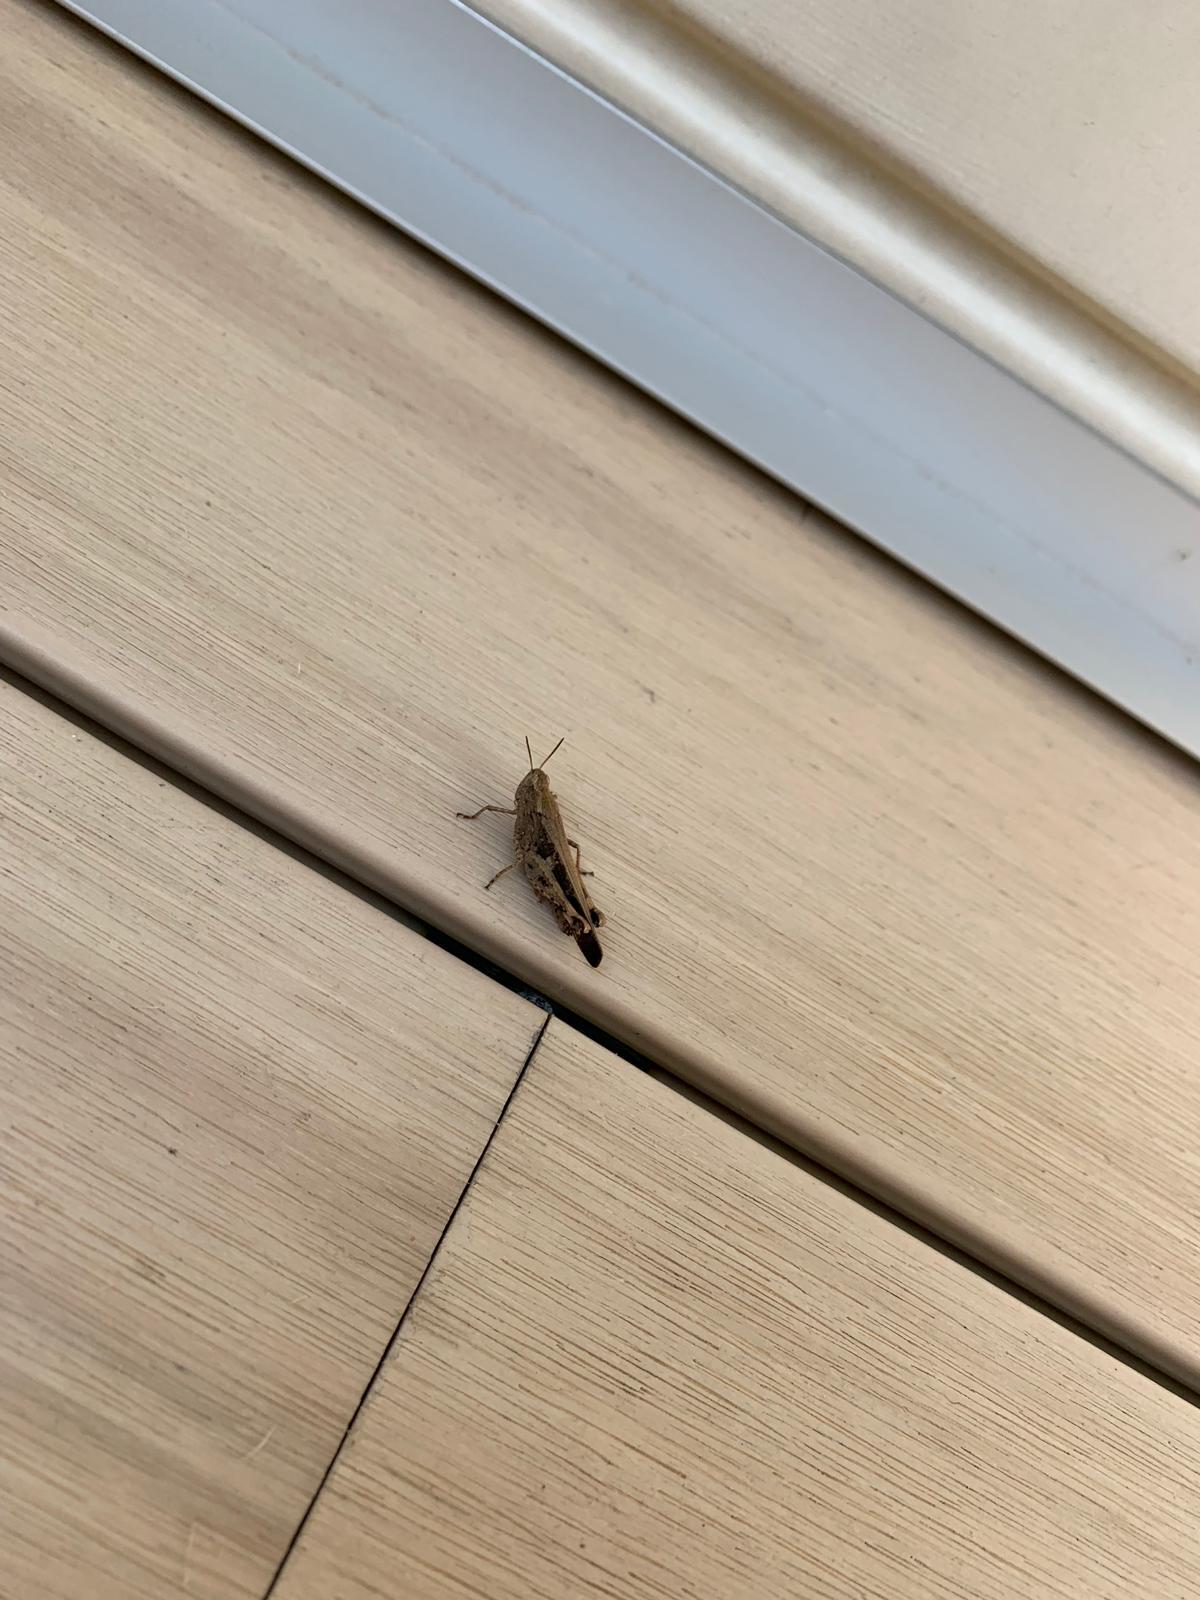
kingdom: Animalia
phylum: Arthropoda
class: Insecta
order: Orthoptera
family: Acrididae
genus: Aiolopus
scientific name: Aiolopus strepens
